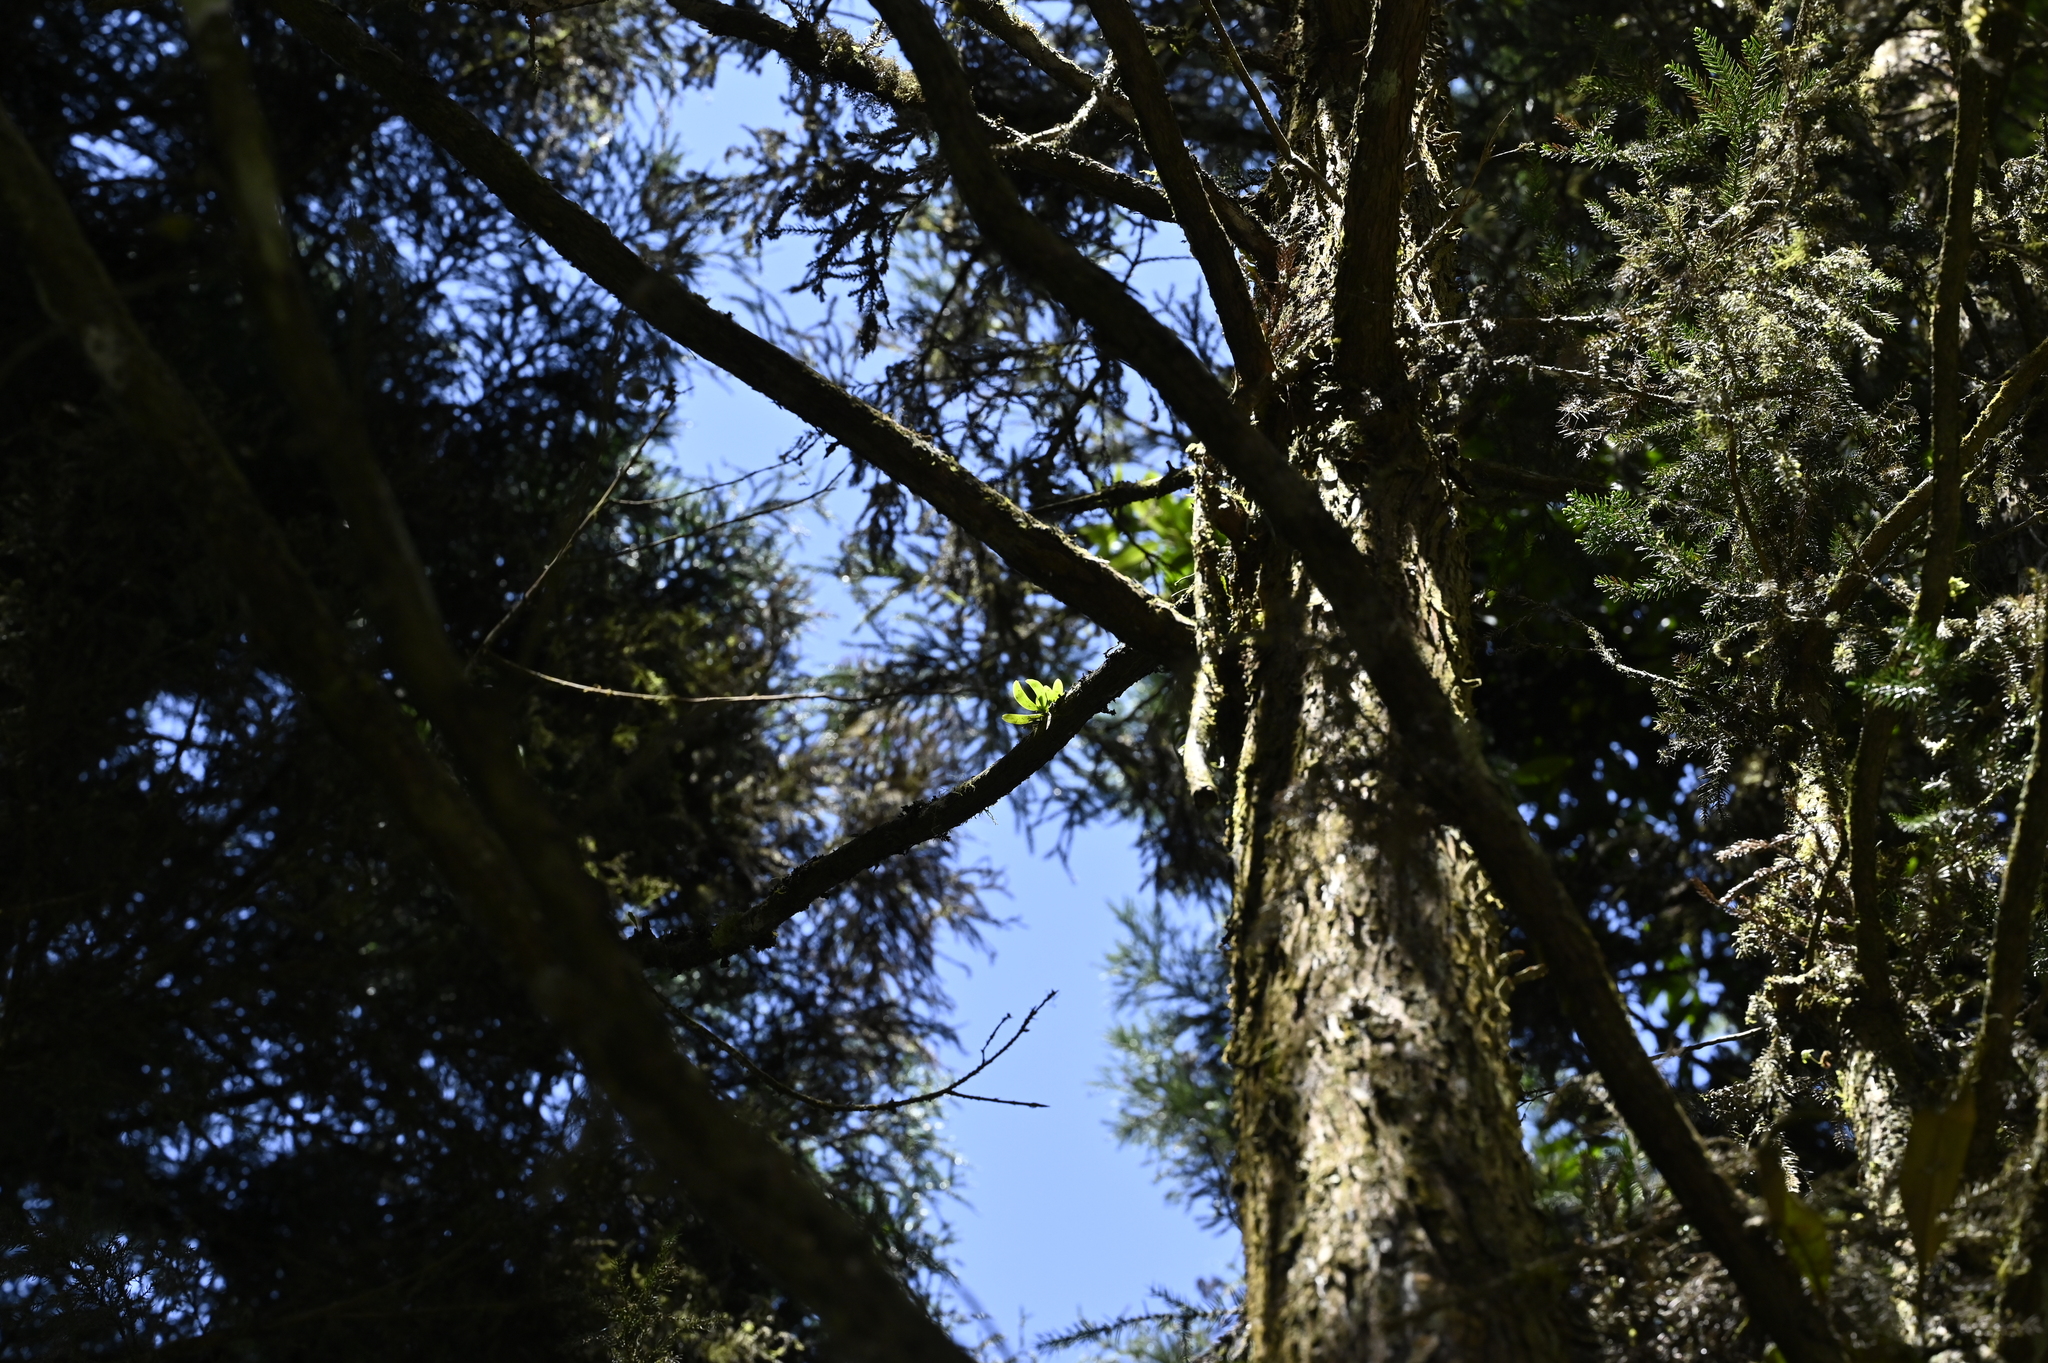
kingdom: Plantae
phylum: Tracheophyta
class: Liliopsida
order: Asparagales
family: Orchidaceae
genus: Gastrochilus
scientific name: Gastrochilus retrocallus
